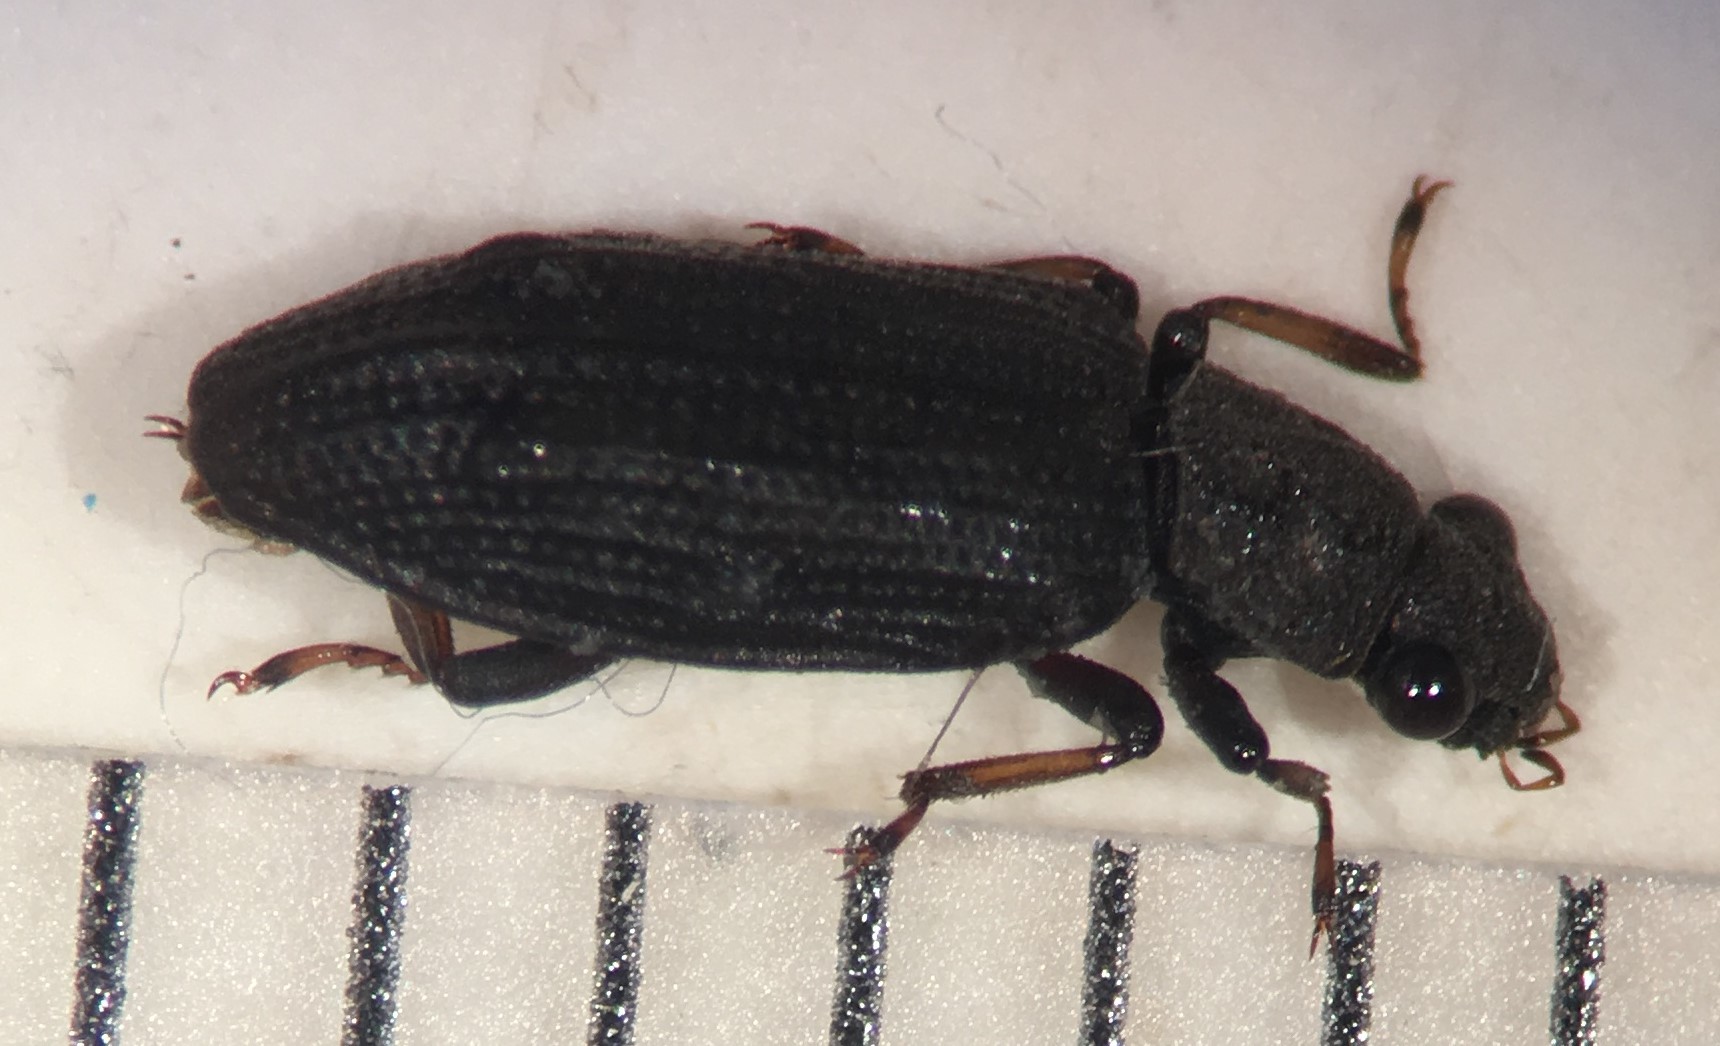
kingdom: Animalia
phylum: Arthropoda
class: Insecta
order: Coleoptera
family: Hydrochidae
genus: Hydrochus
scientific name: Hydrochus rugosus
